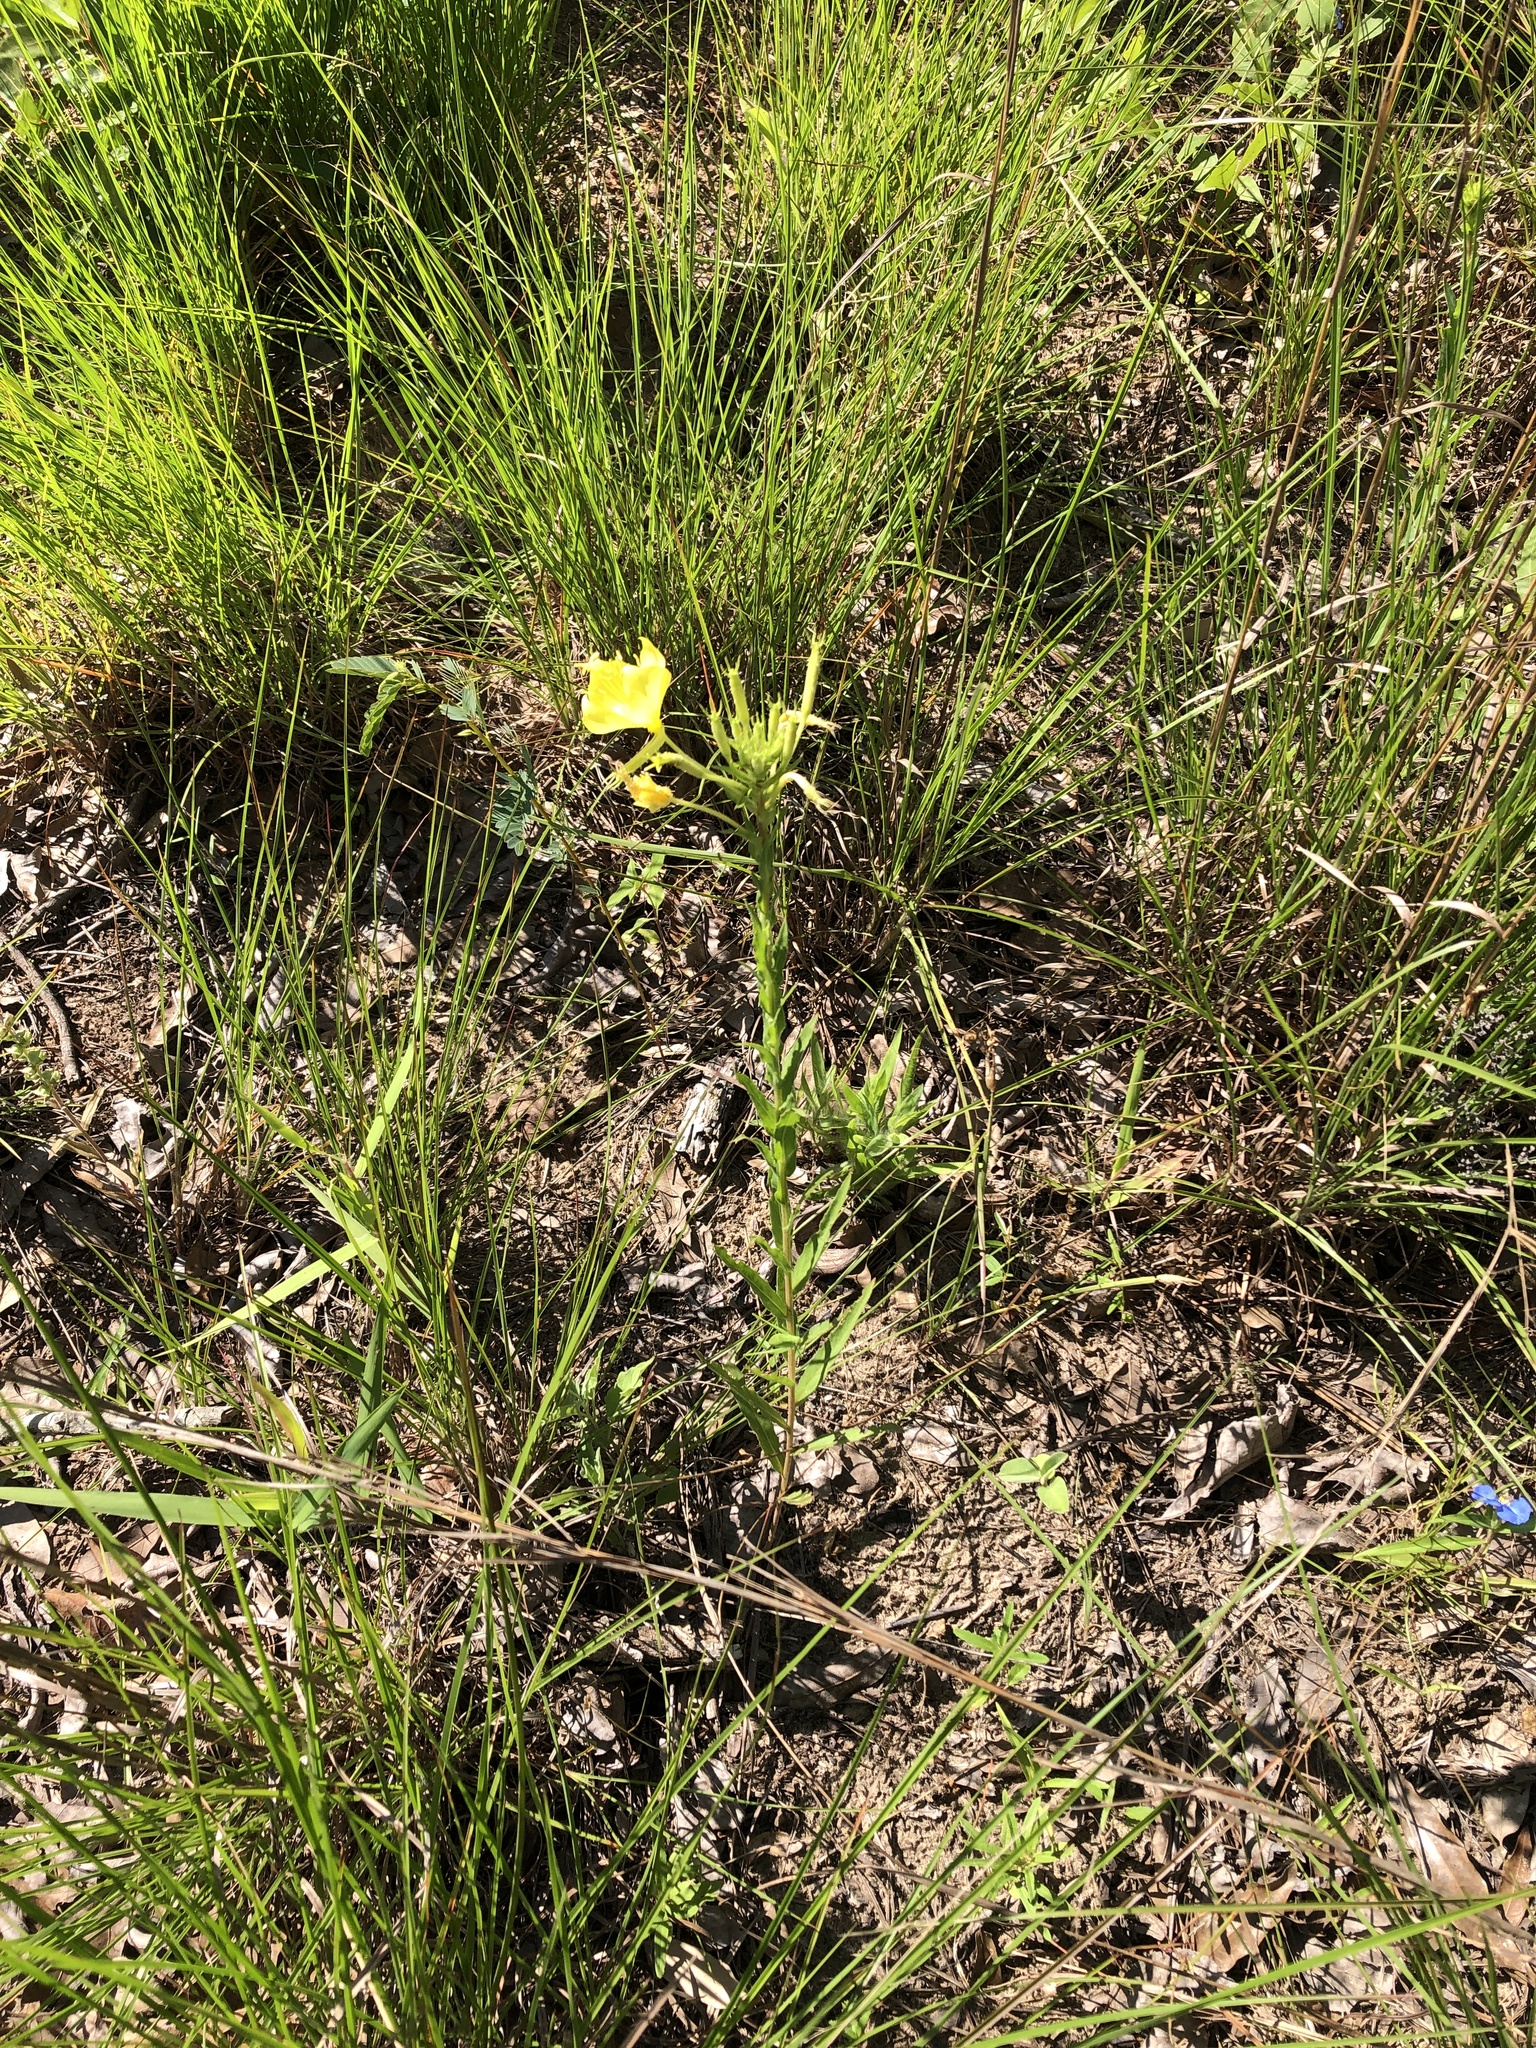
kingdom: Plantae
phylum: Tracheophyta
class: Magnoliopsida
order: Myrtales
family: Onagraceae
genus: Oenothera
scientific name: Oenothera heterophylla
